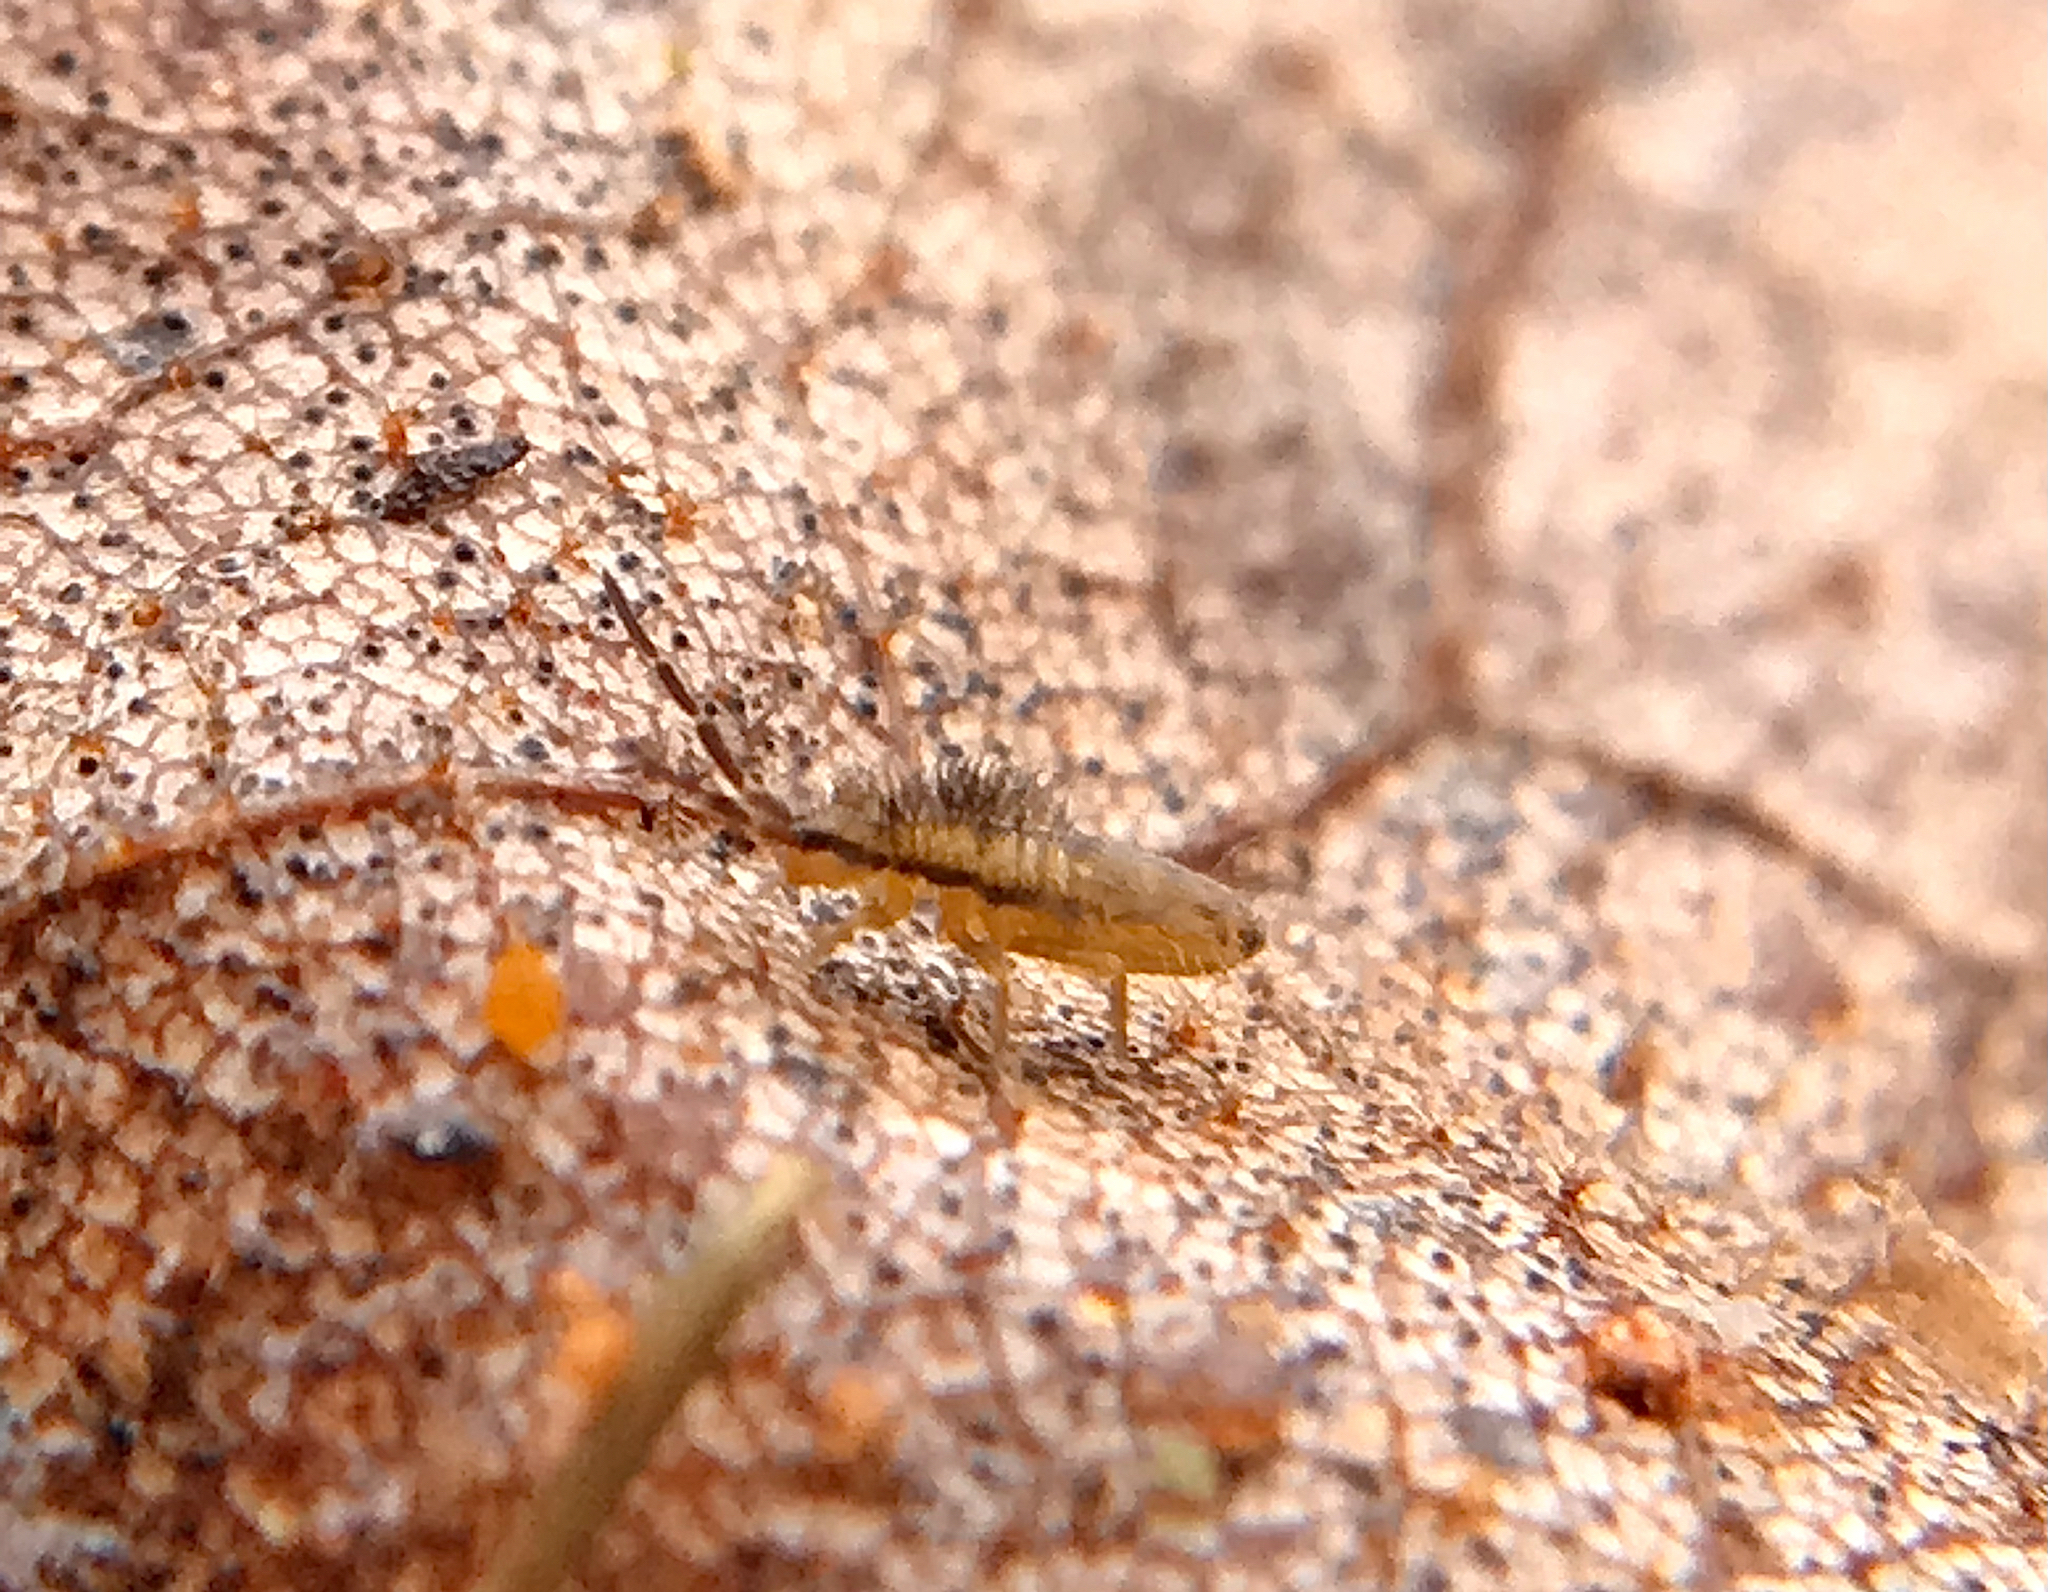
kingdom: Animalia
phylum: Arthropoda
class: Collembola
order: Entomobryomorpha
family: Entomobryidae
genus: Homidia
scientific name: Homidia socia
